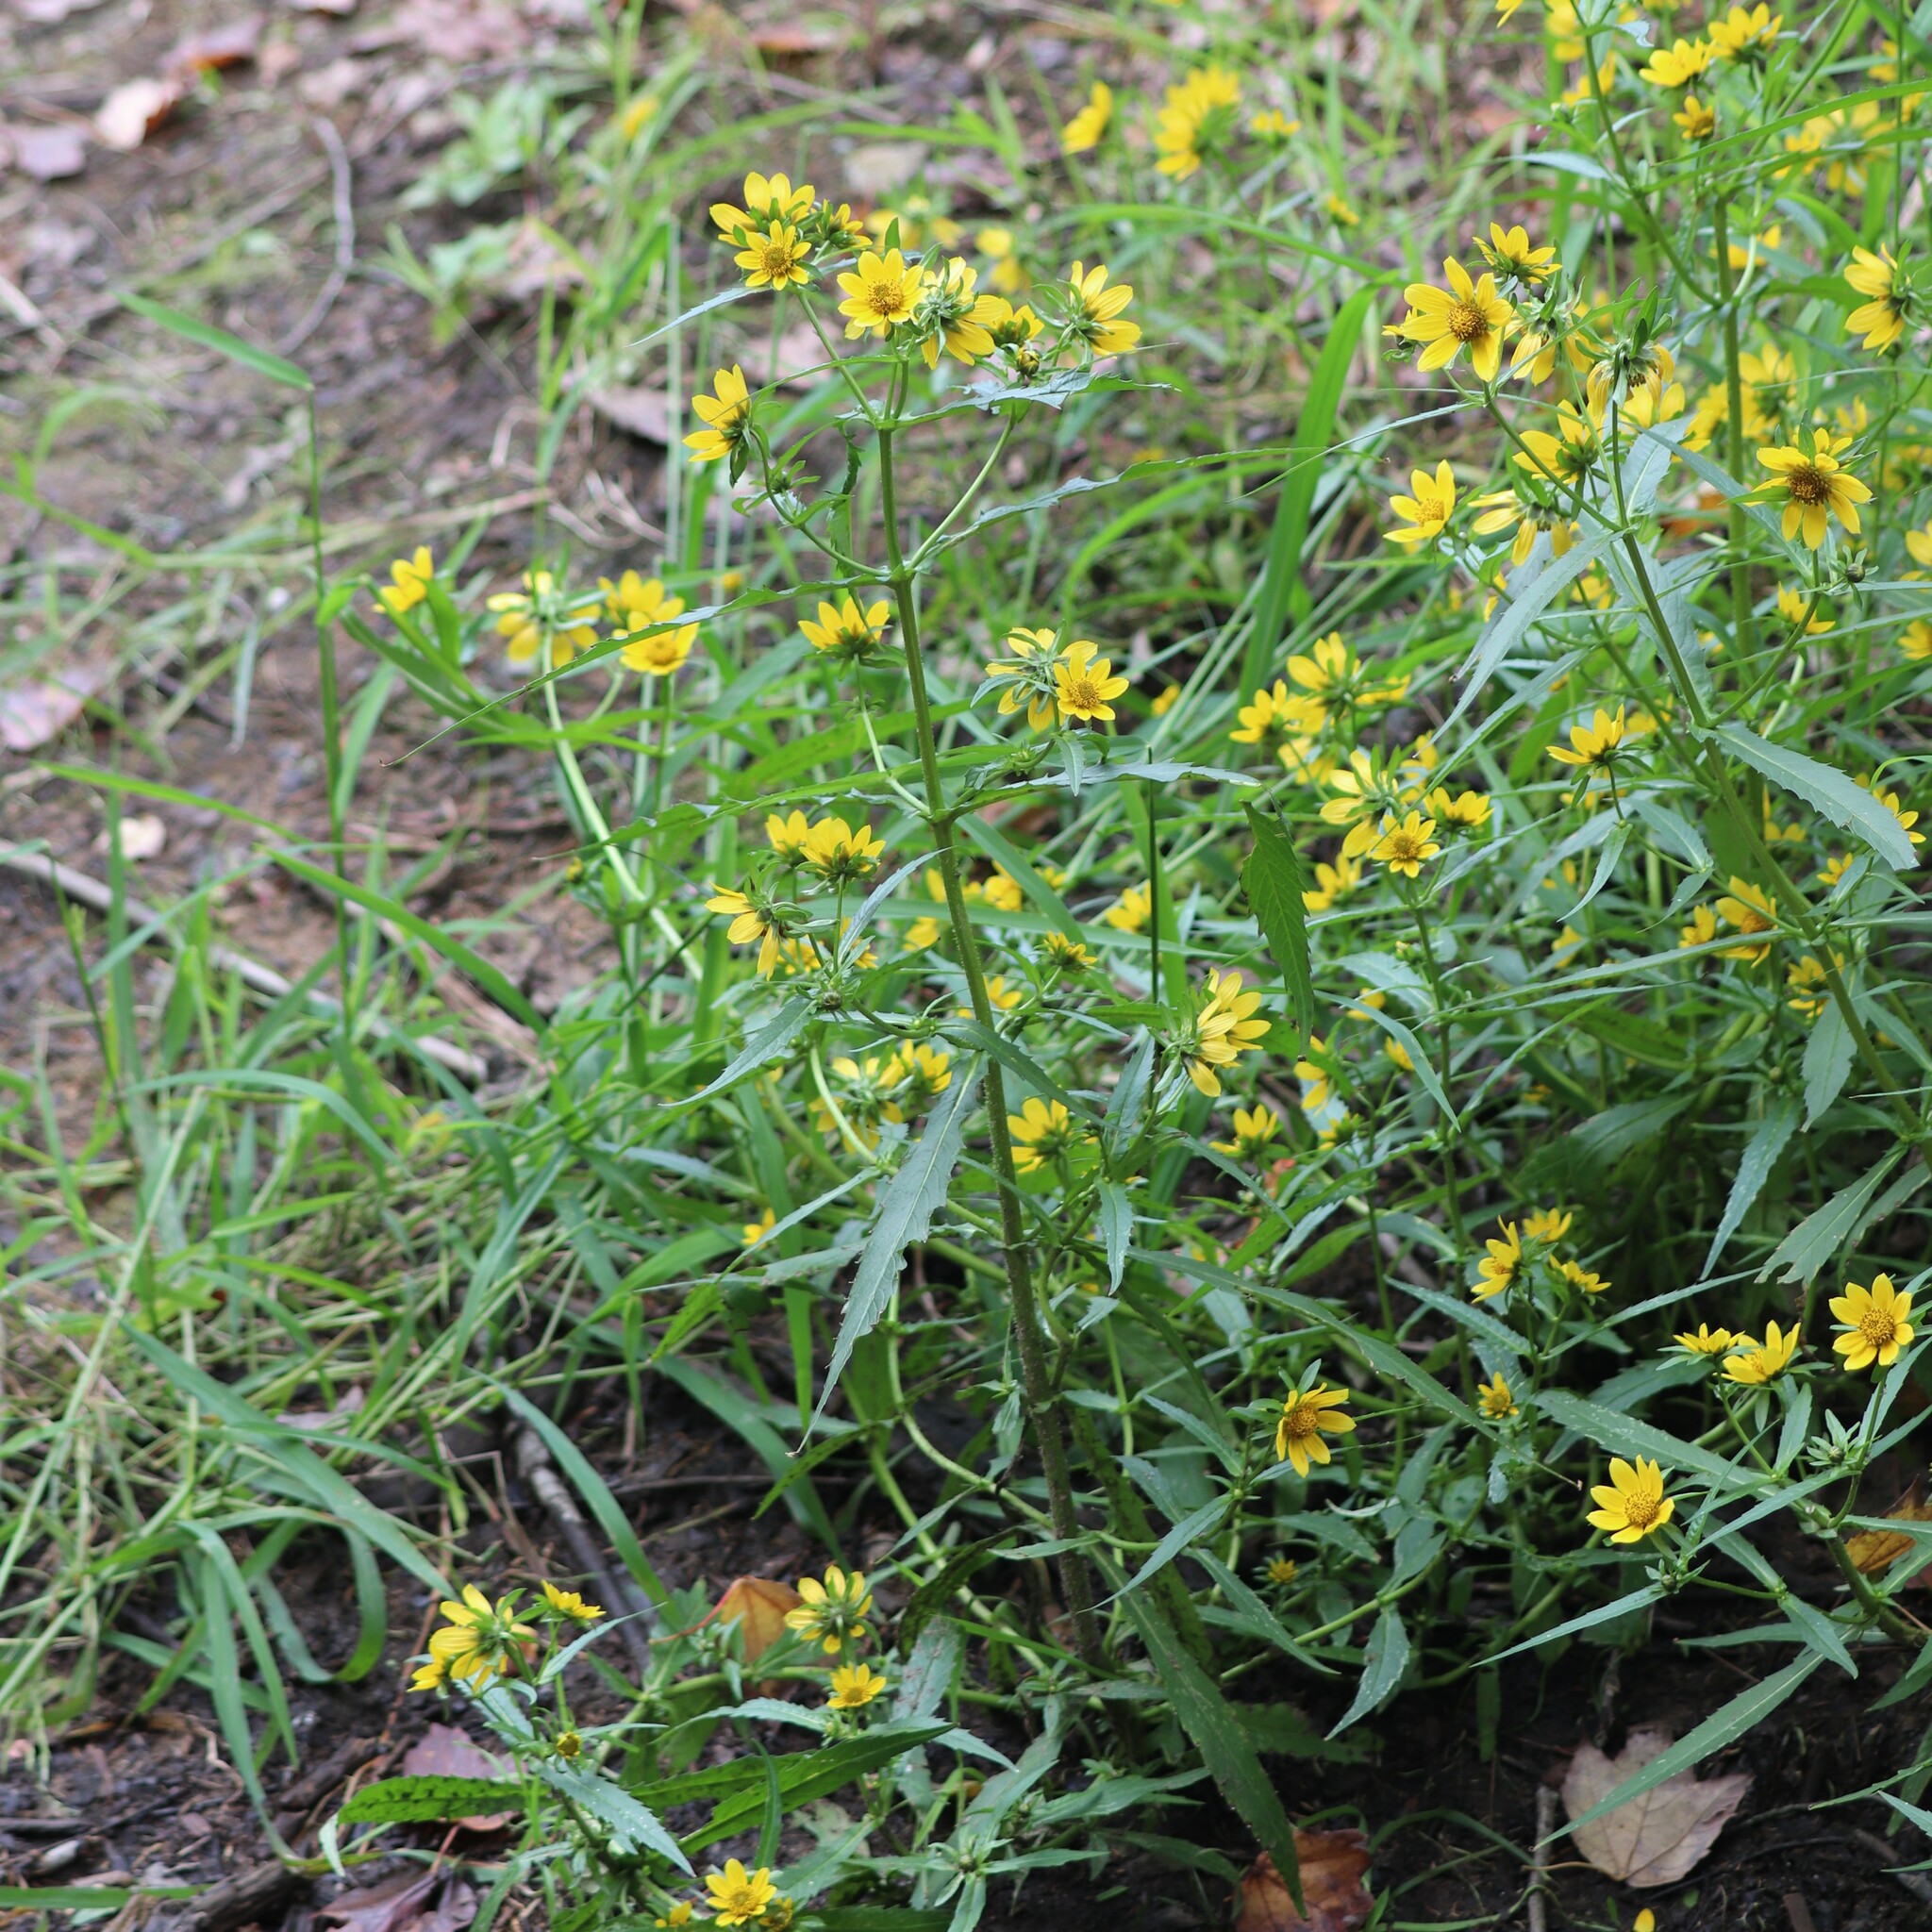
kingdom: Plantae
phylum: Tracheophyta
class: Magnoliopsida
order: Asterales
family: Asteraceae
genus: Bidens
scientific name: Bidens cernua
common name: Nodding bur-marigold
